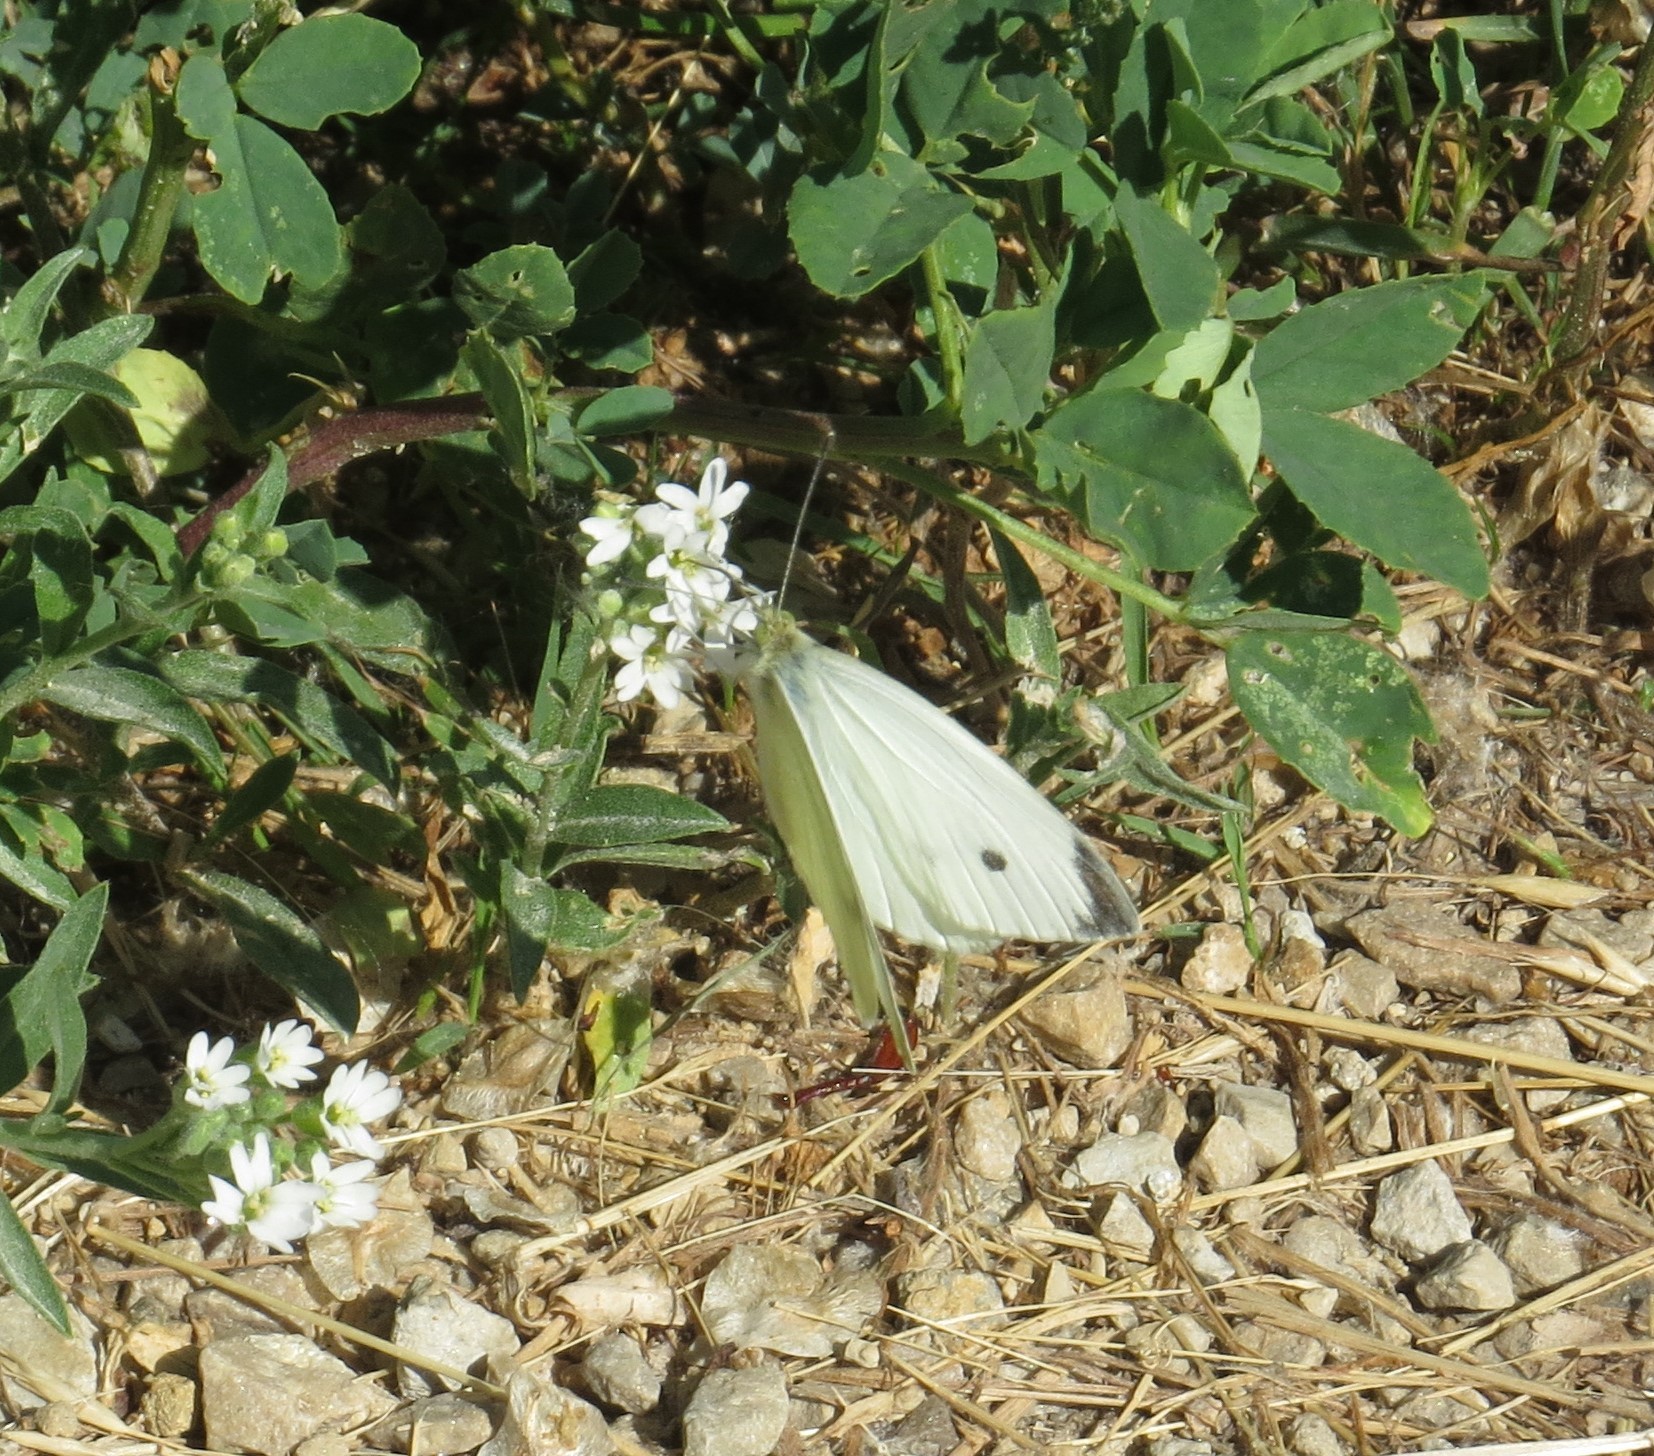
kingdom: Animalia
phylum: Arthropoda
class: Insecta
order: Lepidoptera
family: Pieridae
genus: Pieris
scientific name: Pieris rapae
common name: Small white
